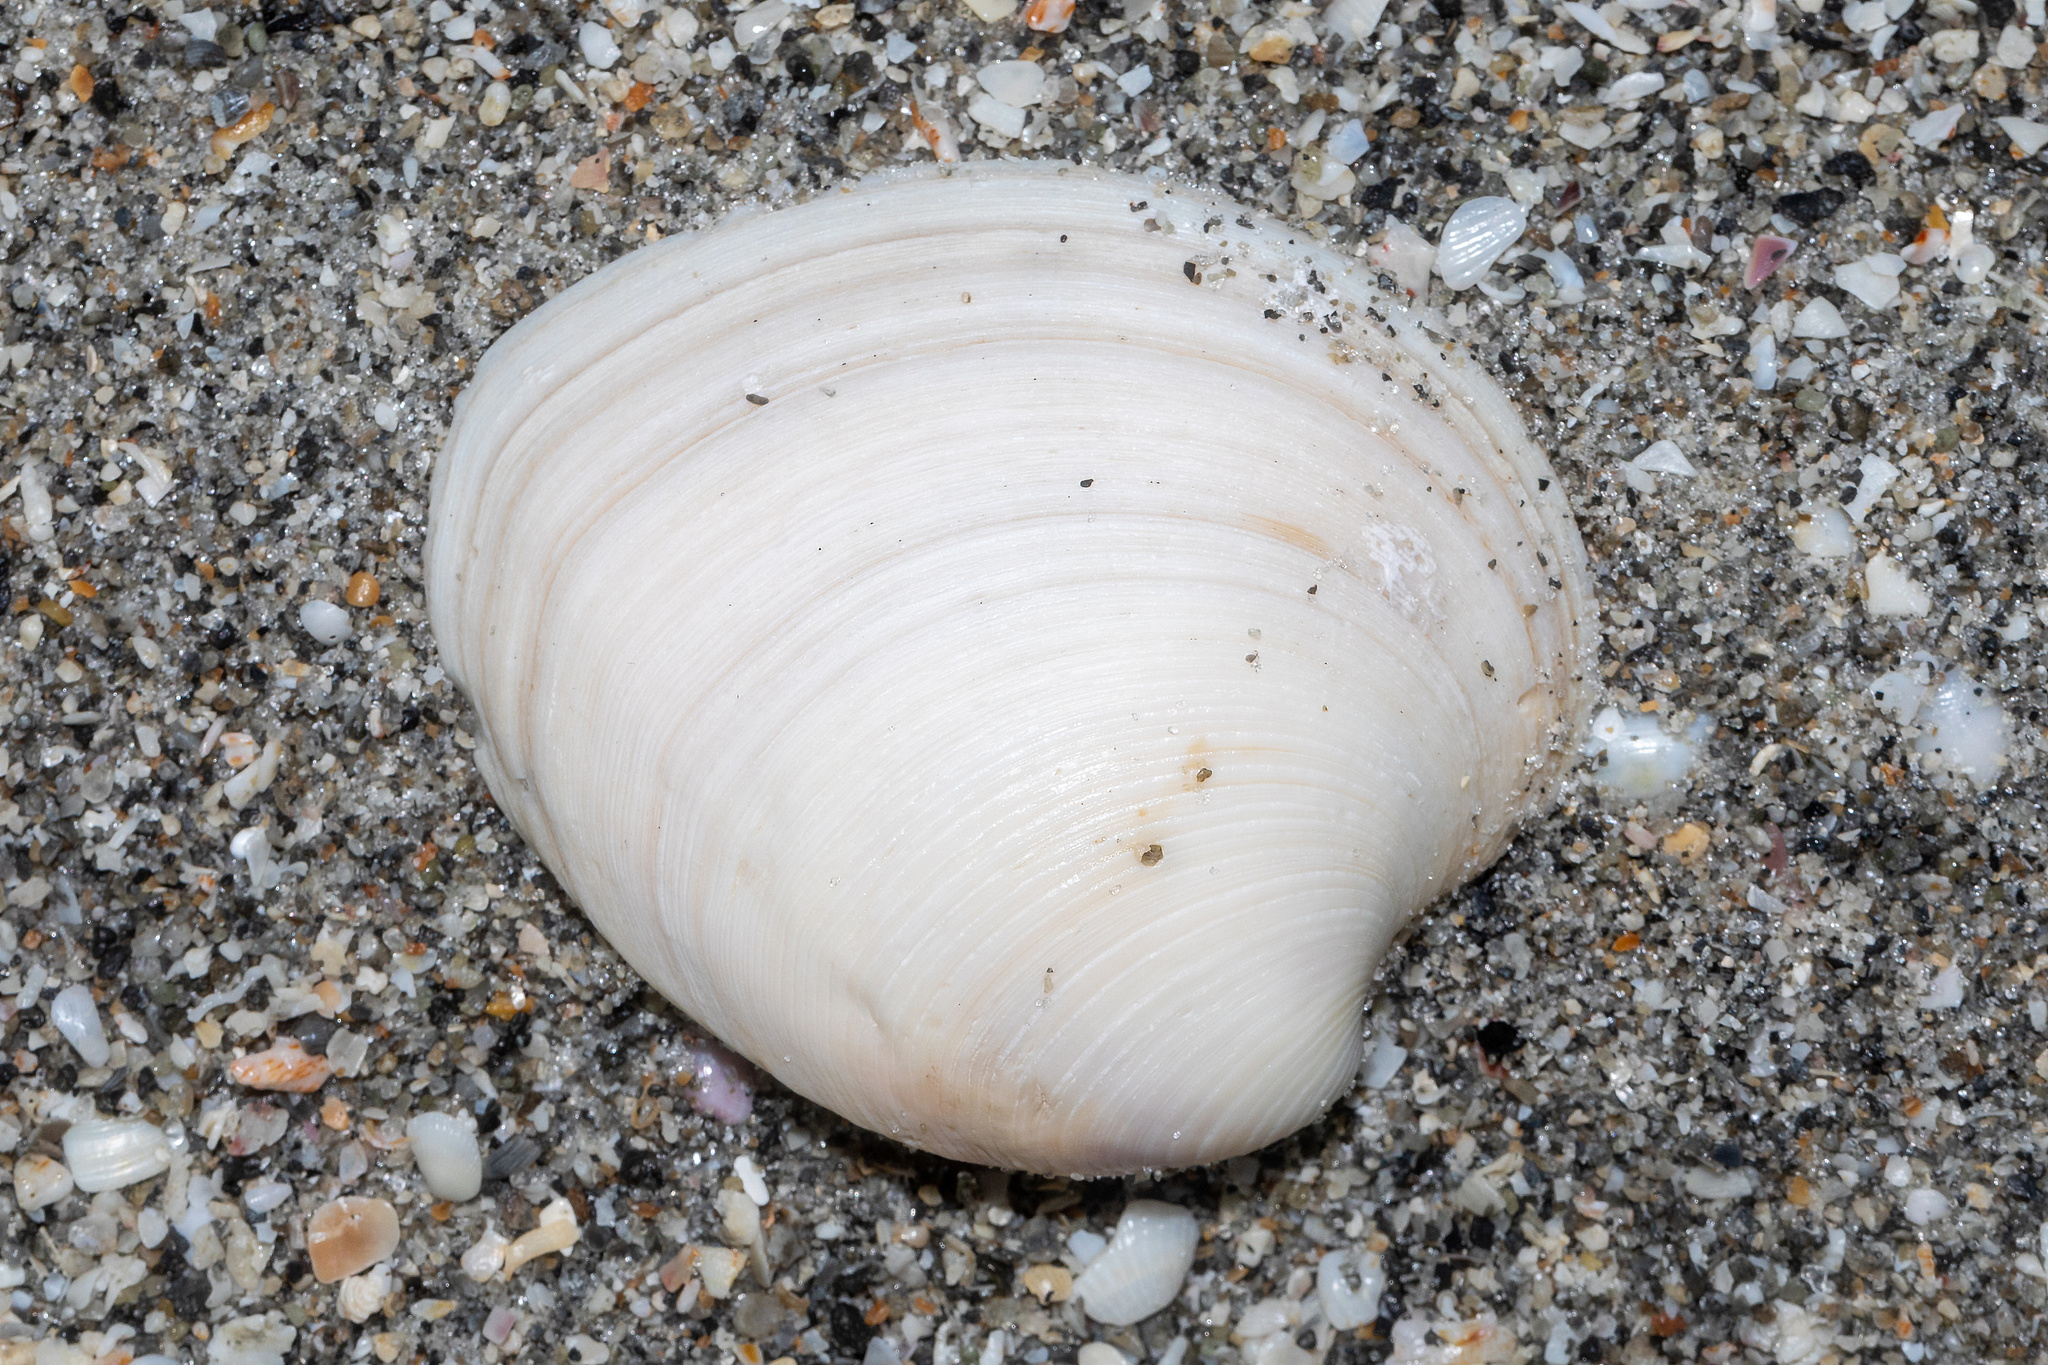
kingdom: Animalia
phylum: Mollusca
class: Bivalvia
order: Venerida
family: Veneridae
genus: Mercenaria
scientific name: Mercenaria campechiensis
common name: Südliche quahog-muschel
